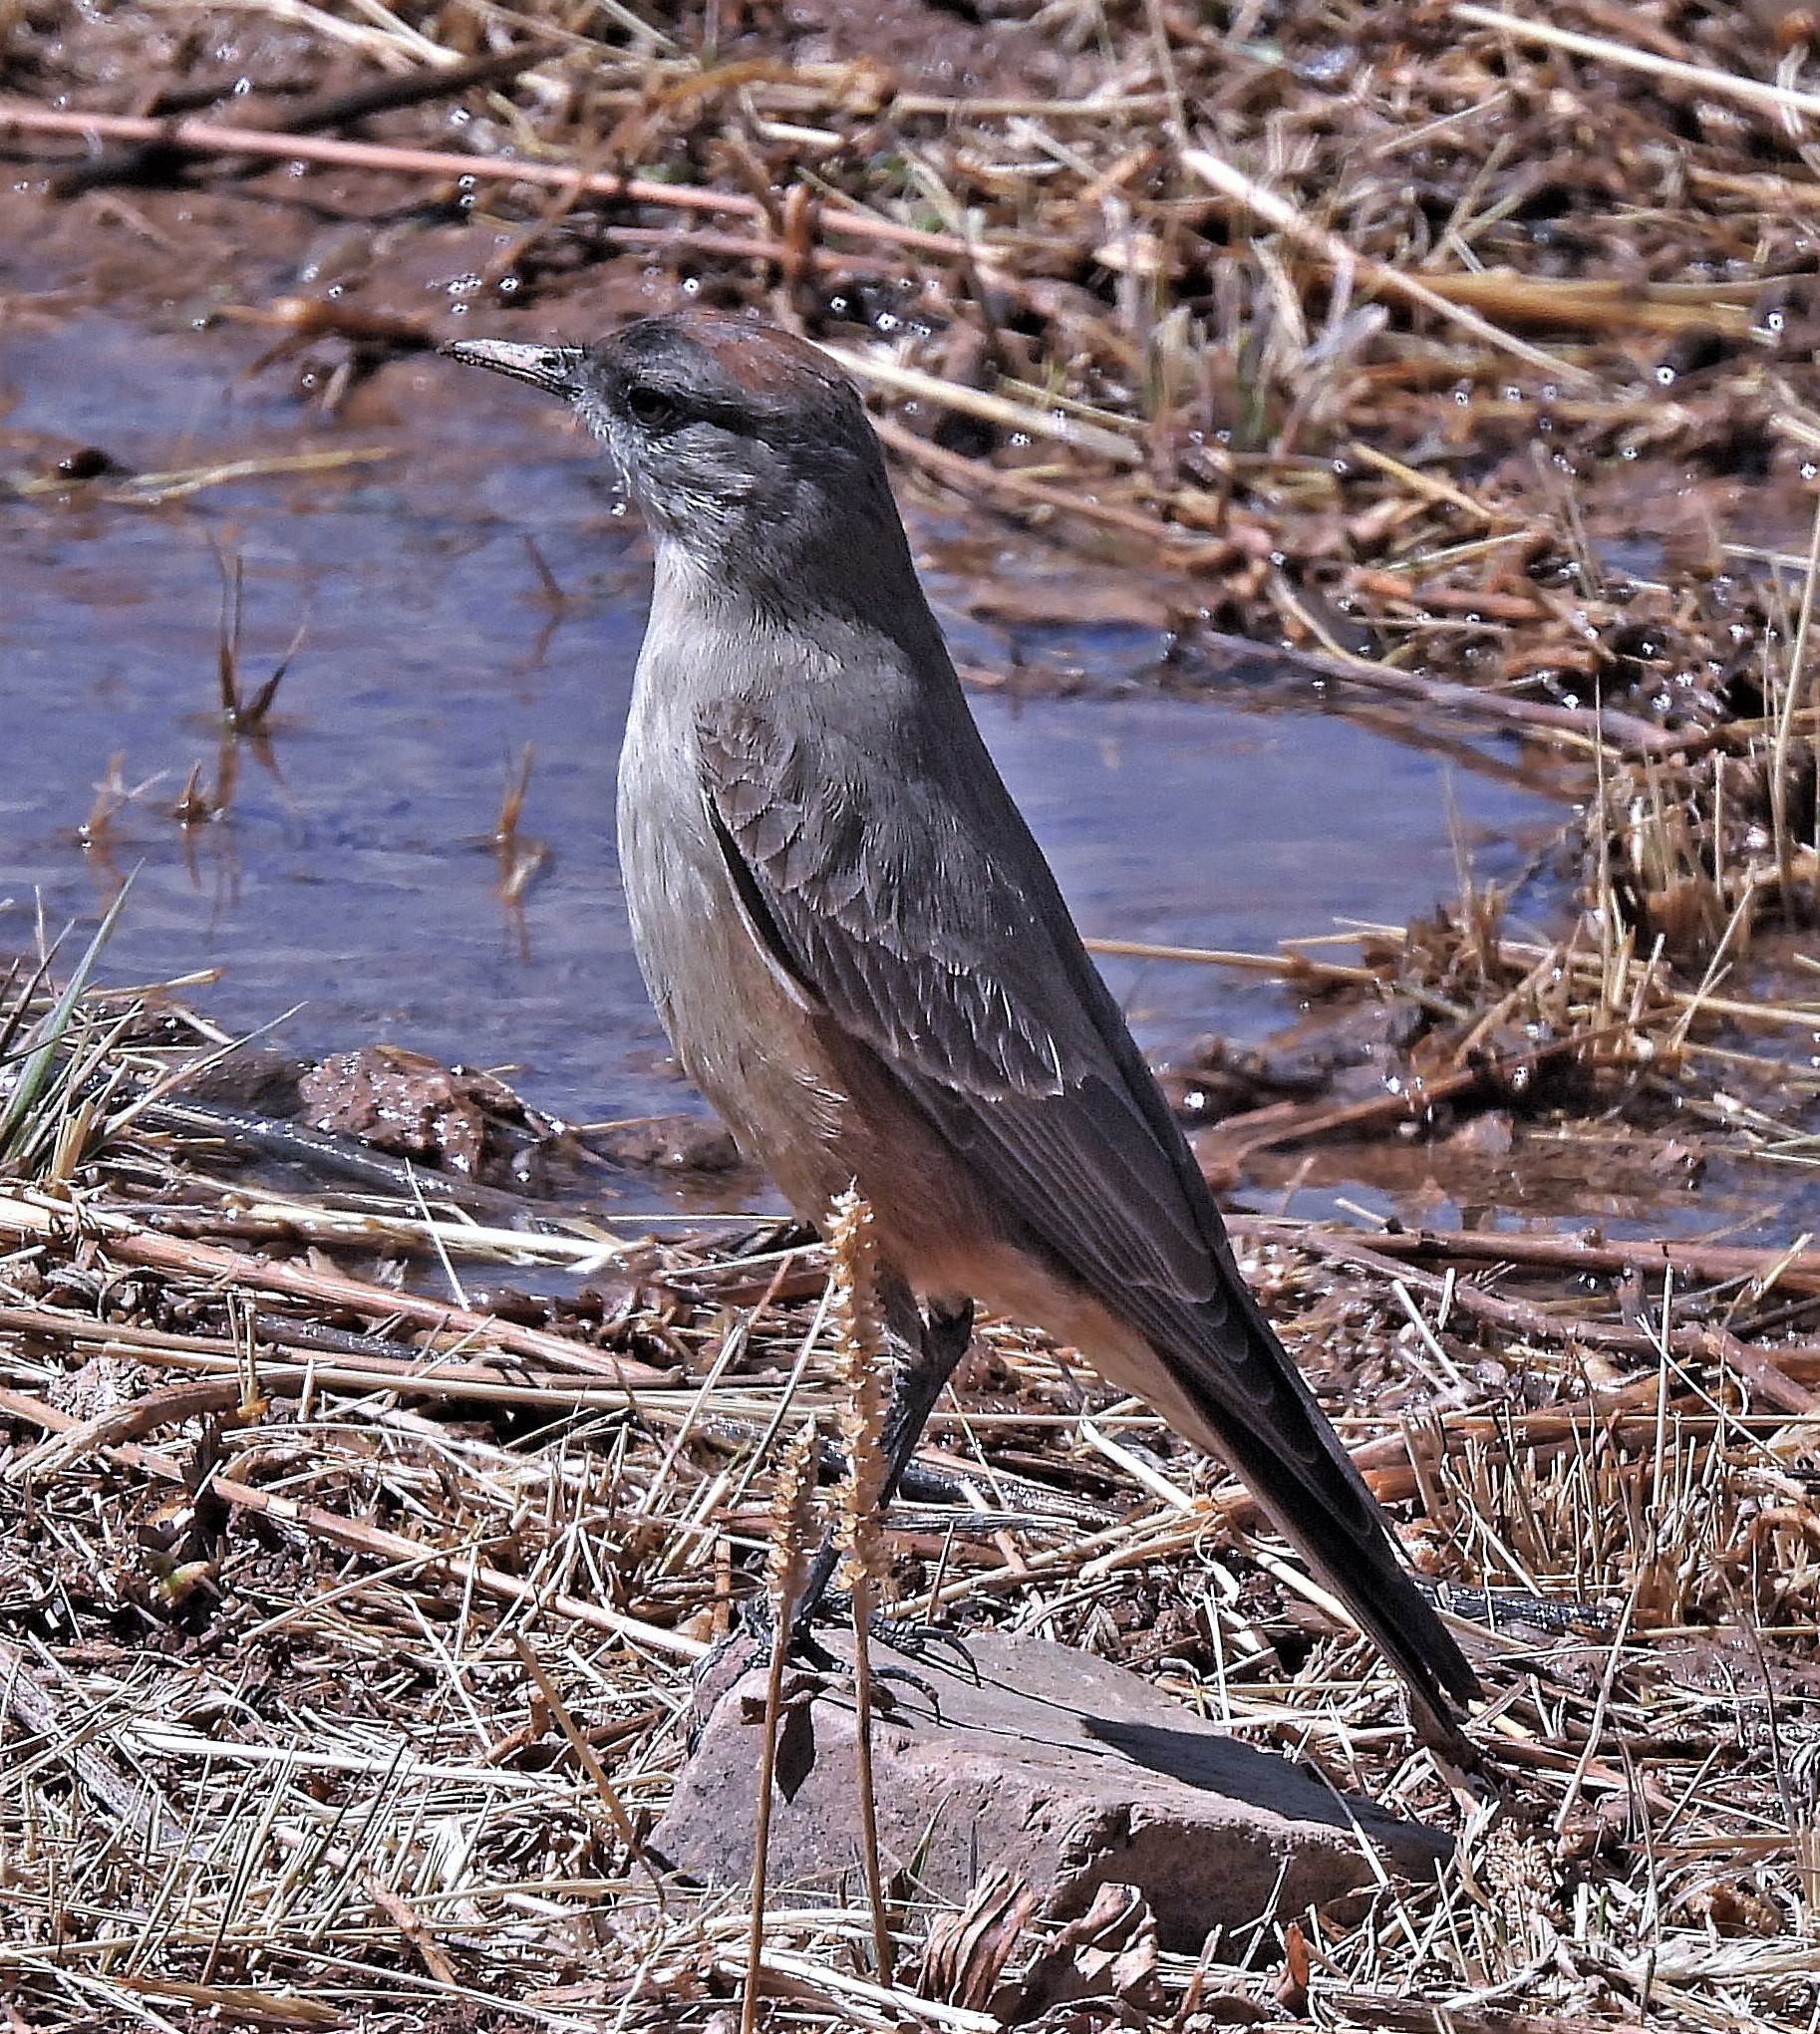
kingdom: Animalia
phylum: Chordata
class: Aves
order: Passeriformes
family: Tyrannidae
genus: Muscisaxicola
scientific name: Muscisaxicola capistratus
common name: Cinnamon-bellied ground tyrant
